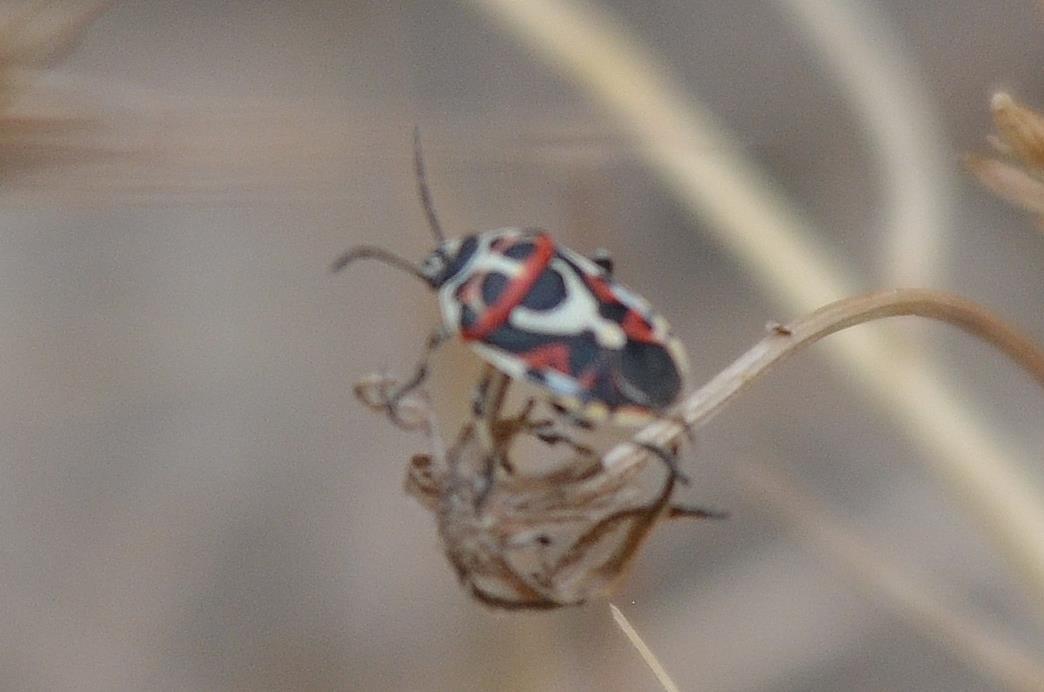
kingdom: Animalia
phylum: Arthropoda
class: Insecta
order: Hemiptera
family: Pentatomidae
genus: Eurydema
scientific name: Eurydema ornata
